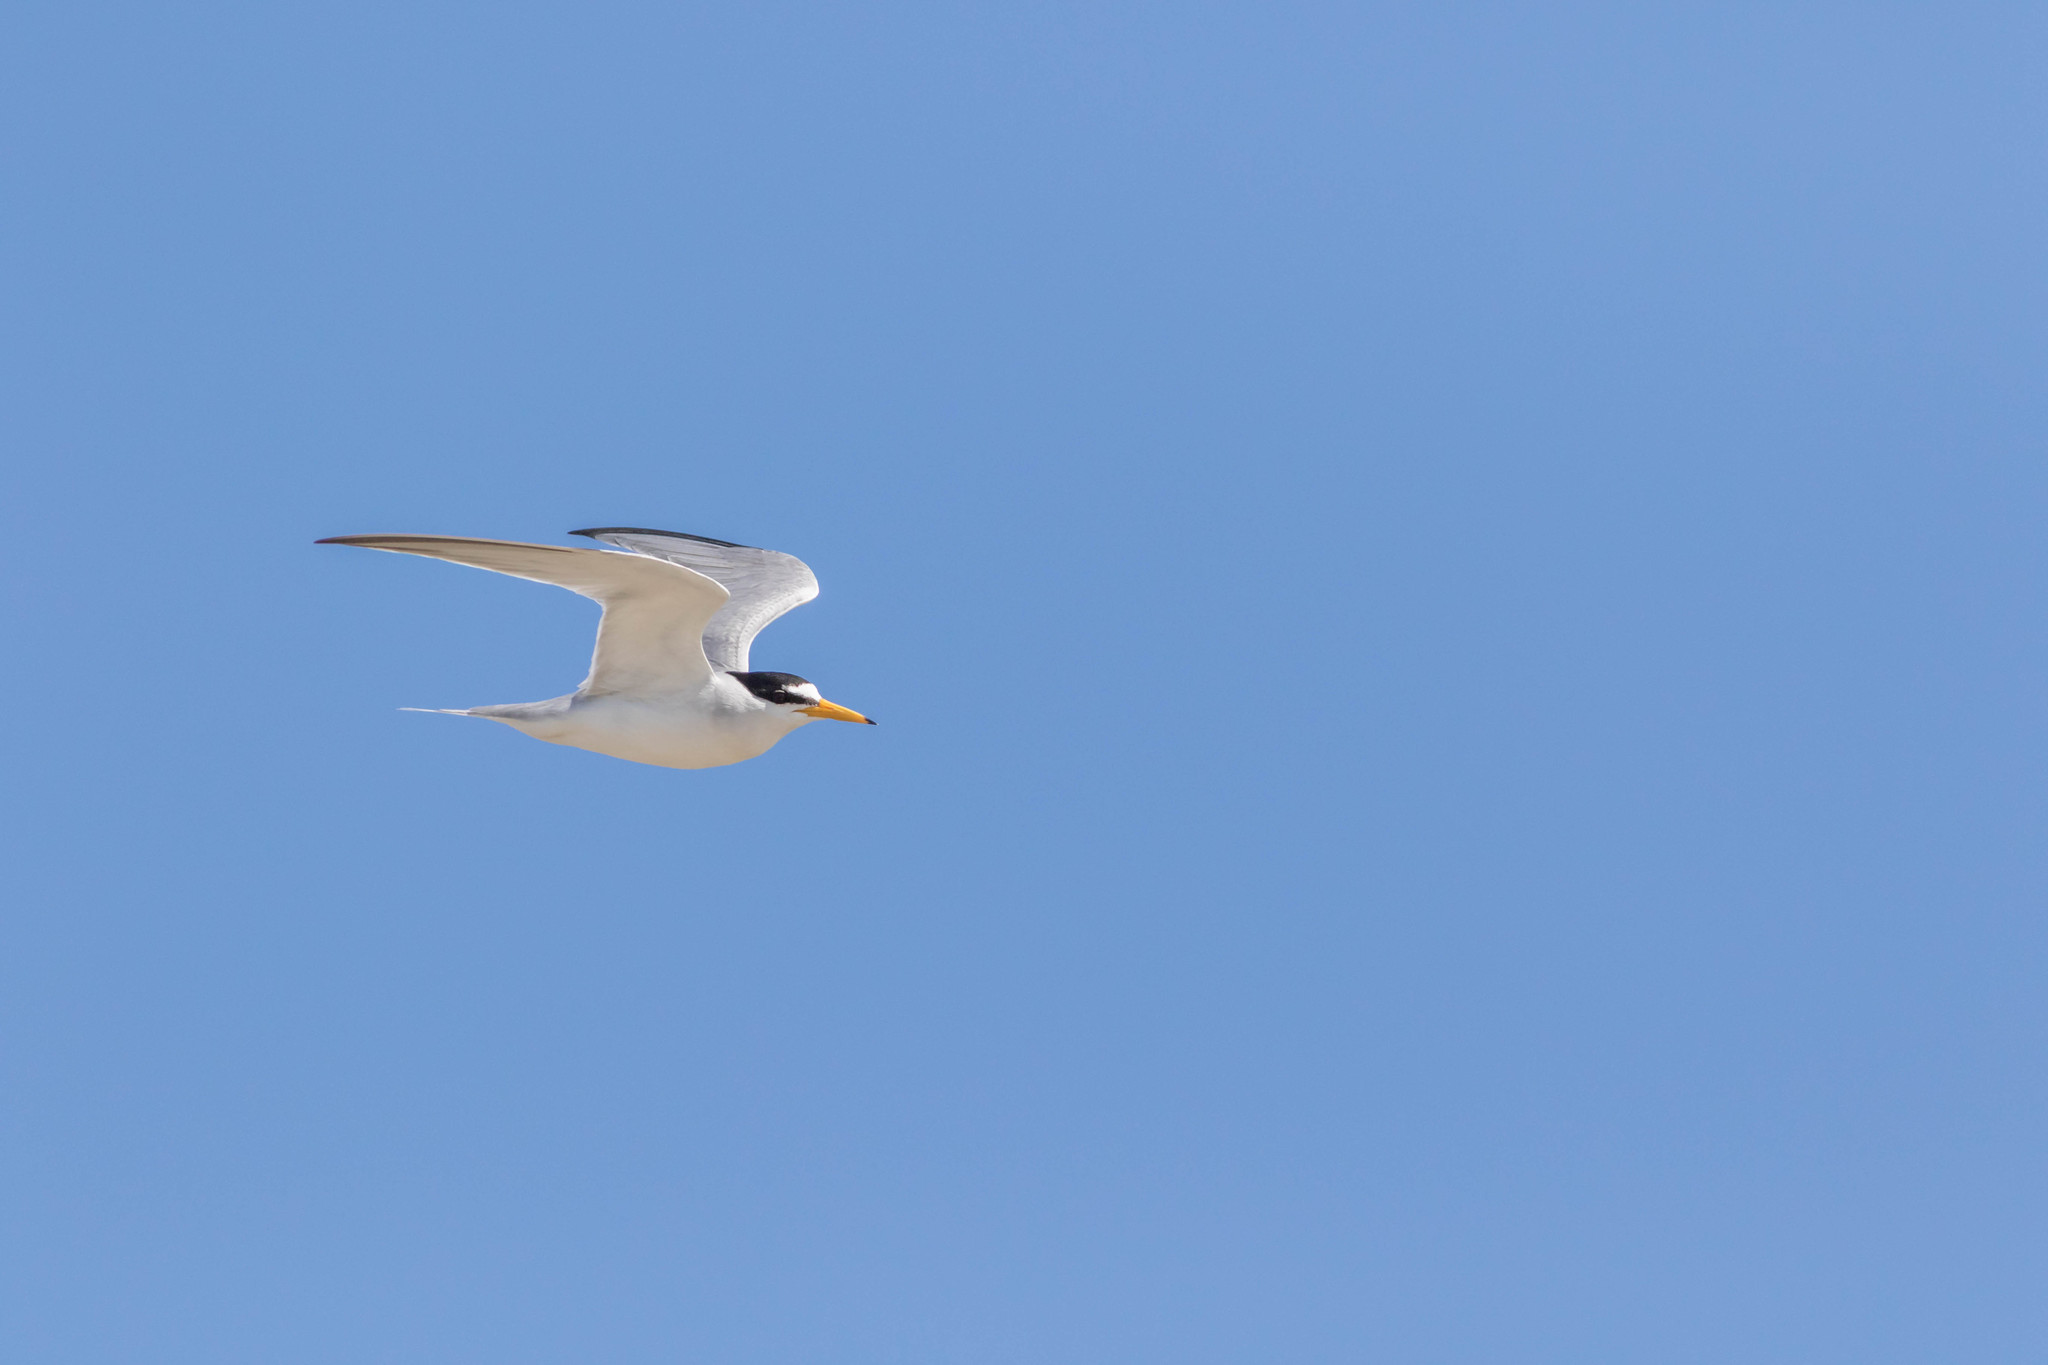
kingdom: Animalia
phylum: Chordata
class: Aves
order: Charadriiformes
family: Laridae
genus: Sternula
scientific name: Sternula antillarum
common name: Least tern
